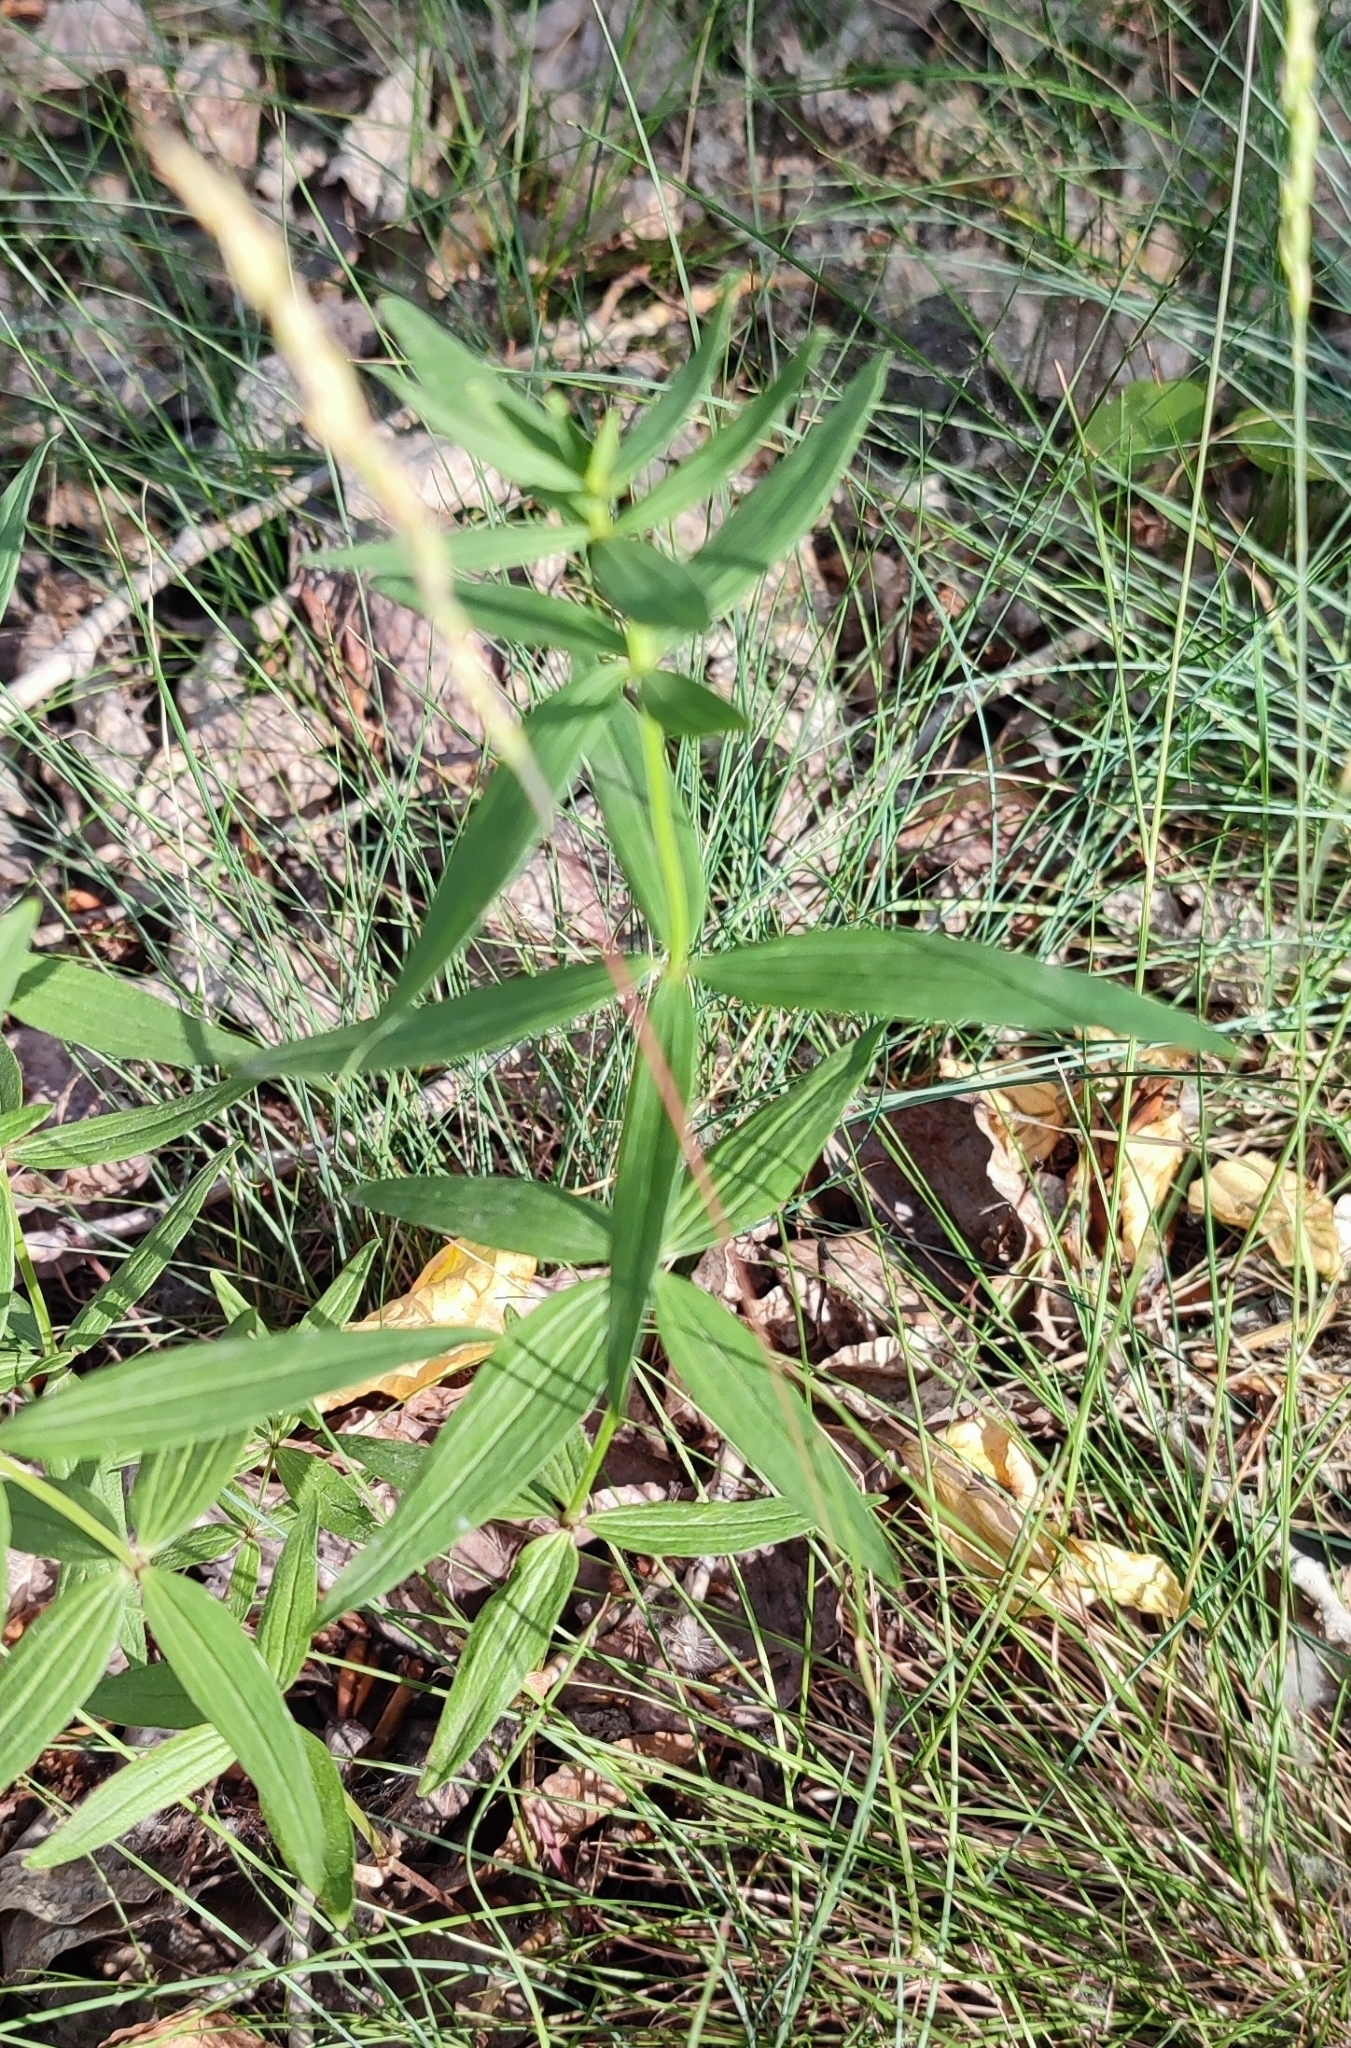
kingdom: Plantae
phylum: Tracheophyta
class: Magnoliopsida
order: Gentianales
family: Rubiaceae
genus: Galium
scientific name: Galium pseudoboreale
